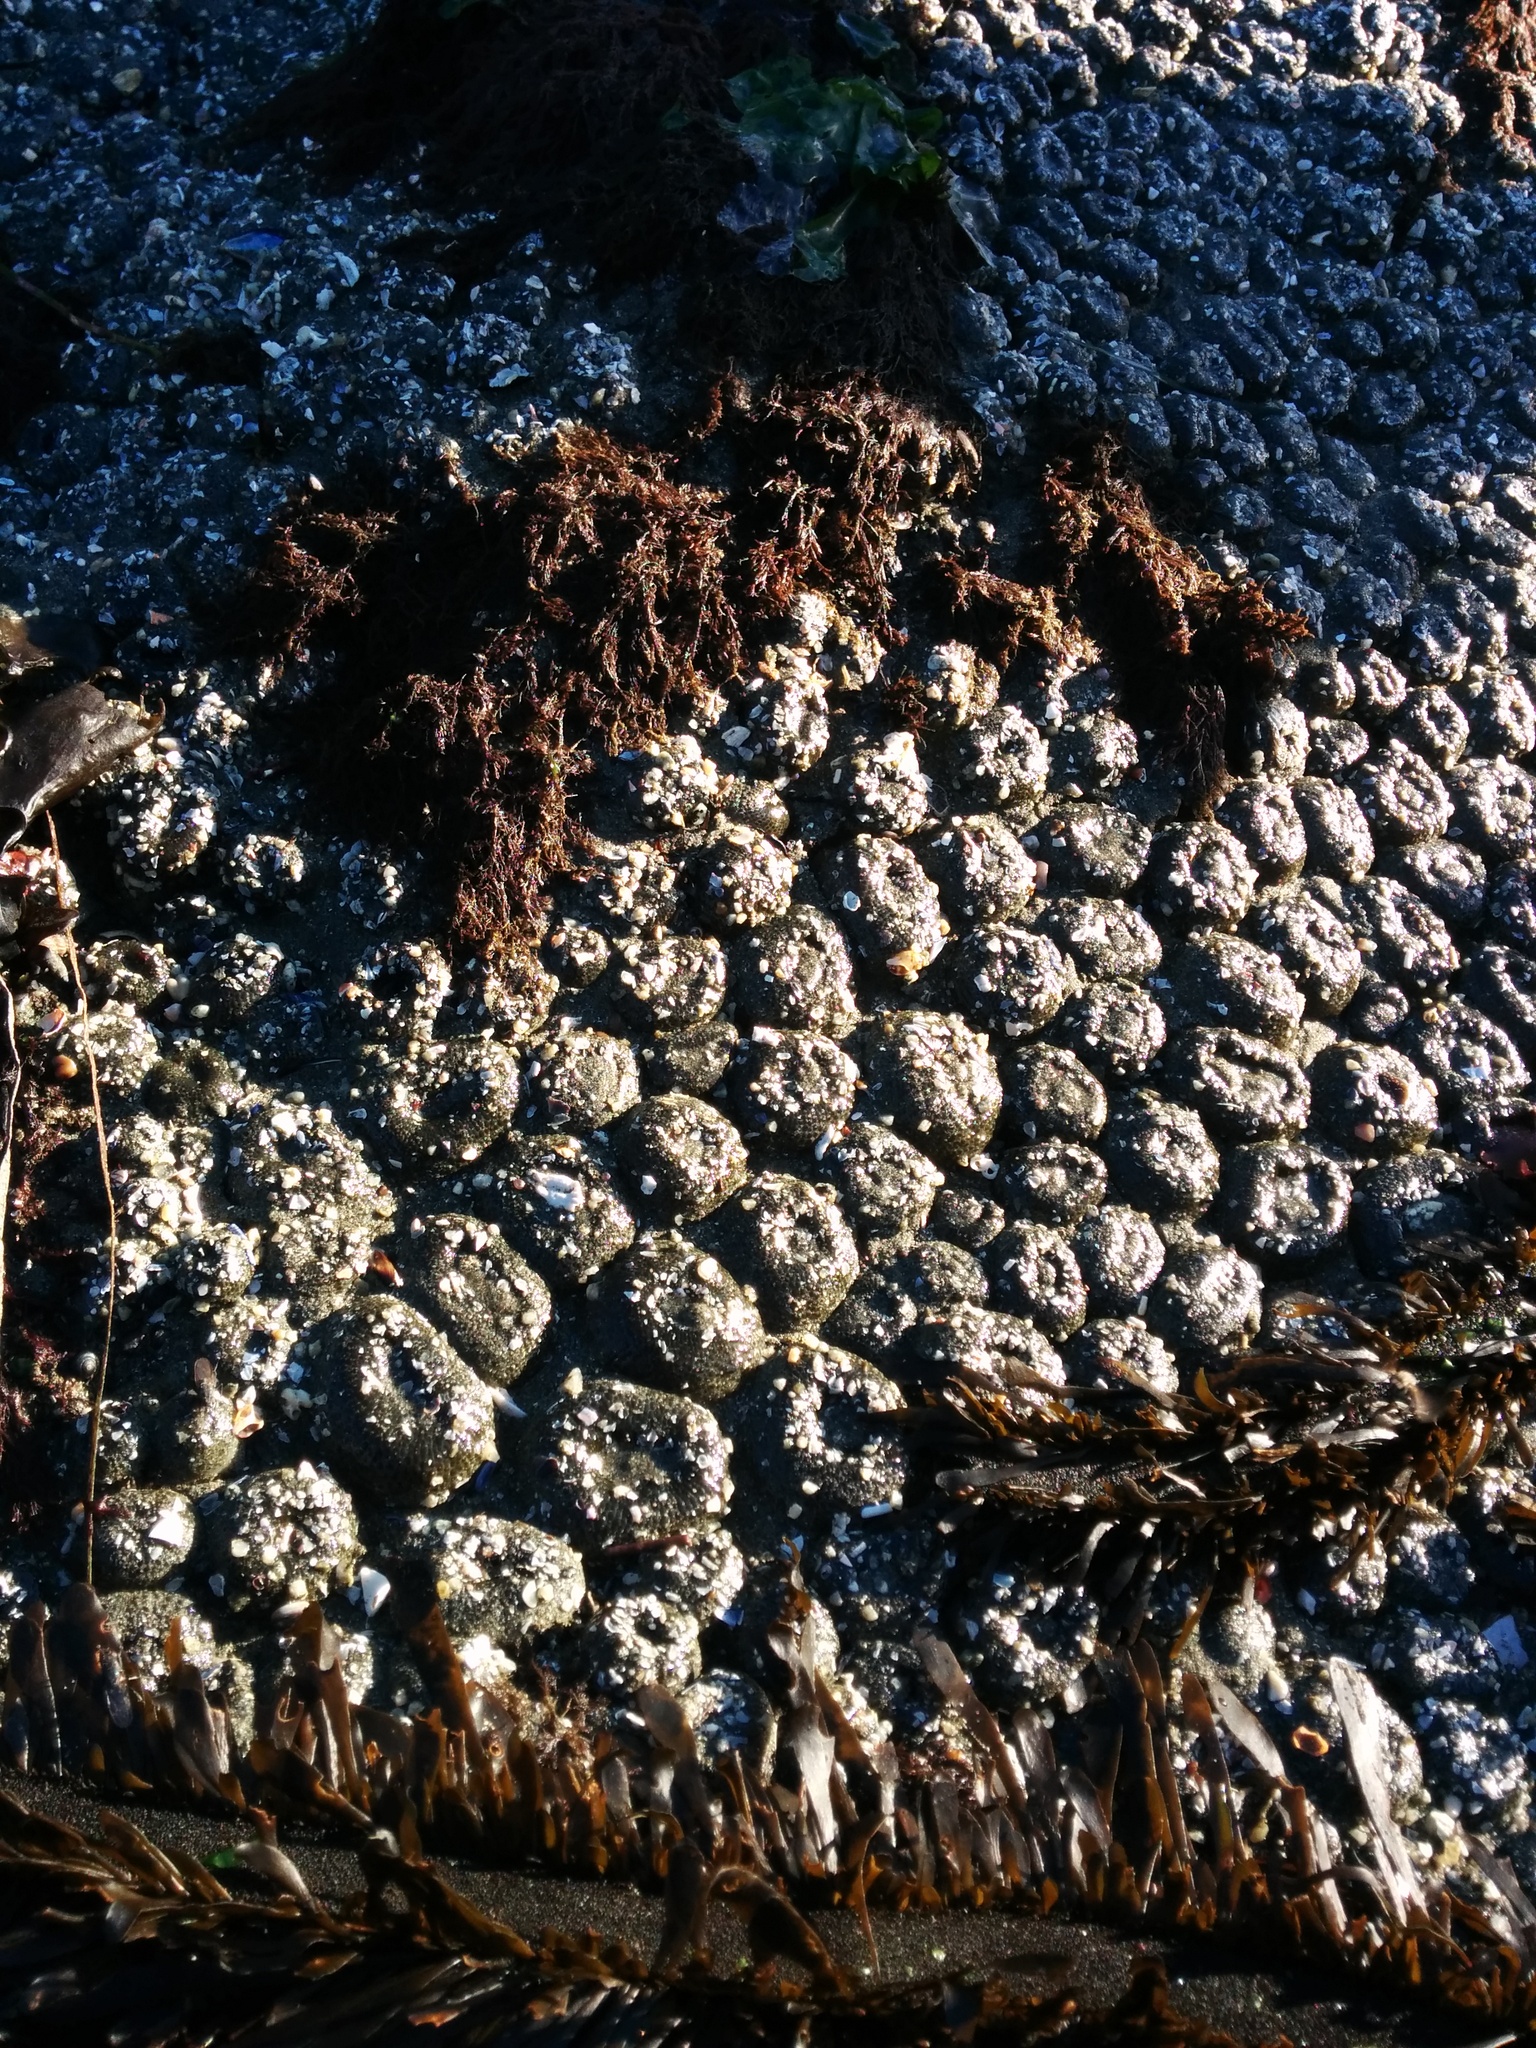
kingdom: Animalia
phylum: Cnidaria
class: Anthozoa
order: Actiniaria
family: Actiniidae
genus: Anthopleura
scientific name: Anthopleura elegantissima
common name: Clonal anemone
